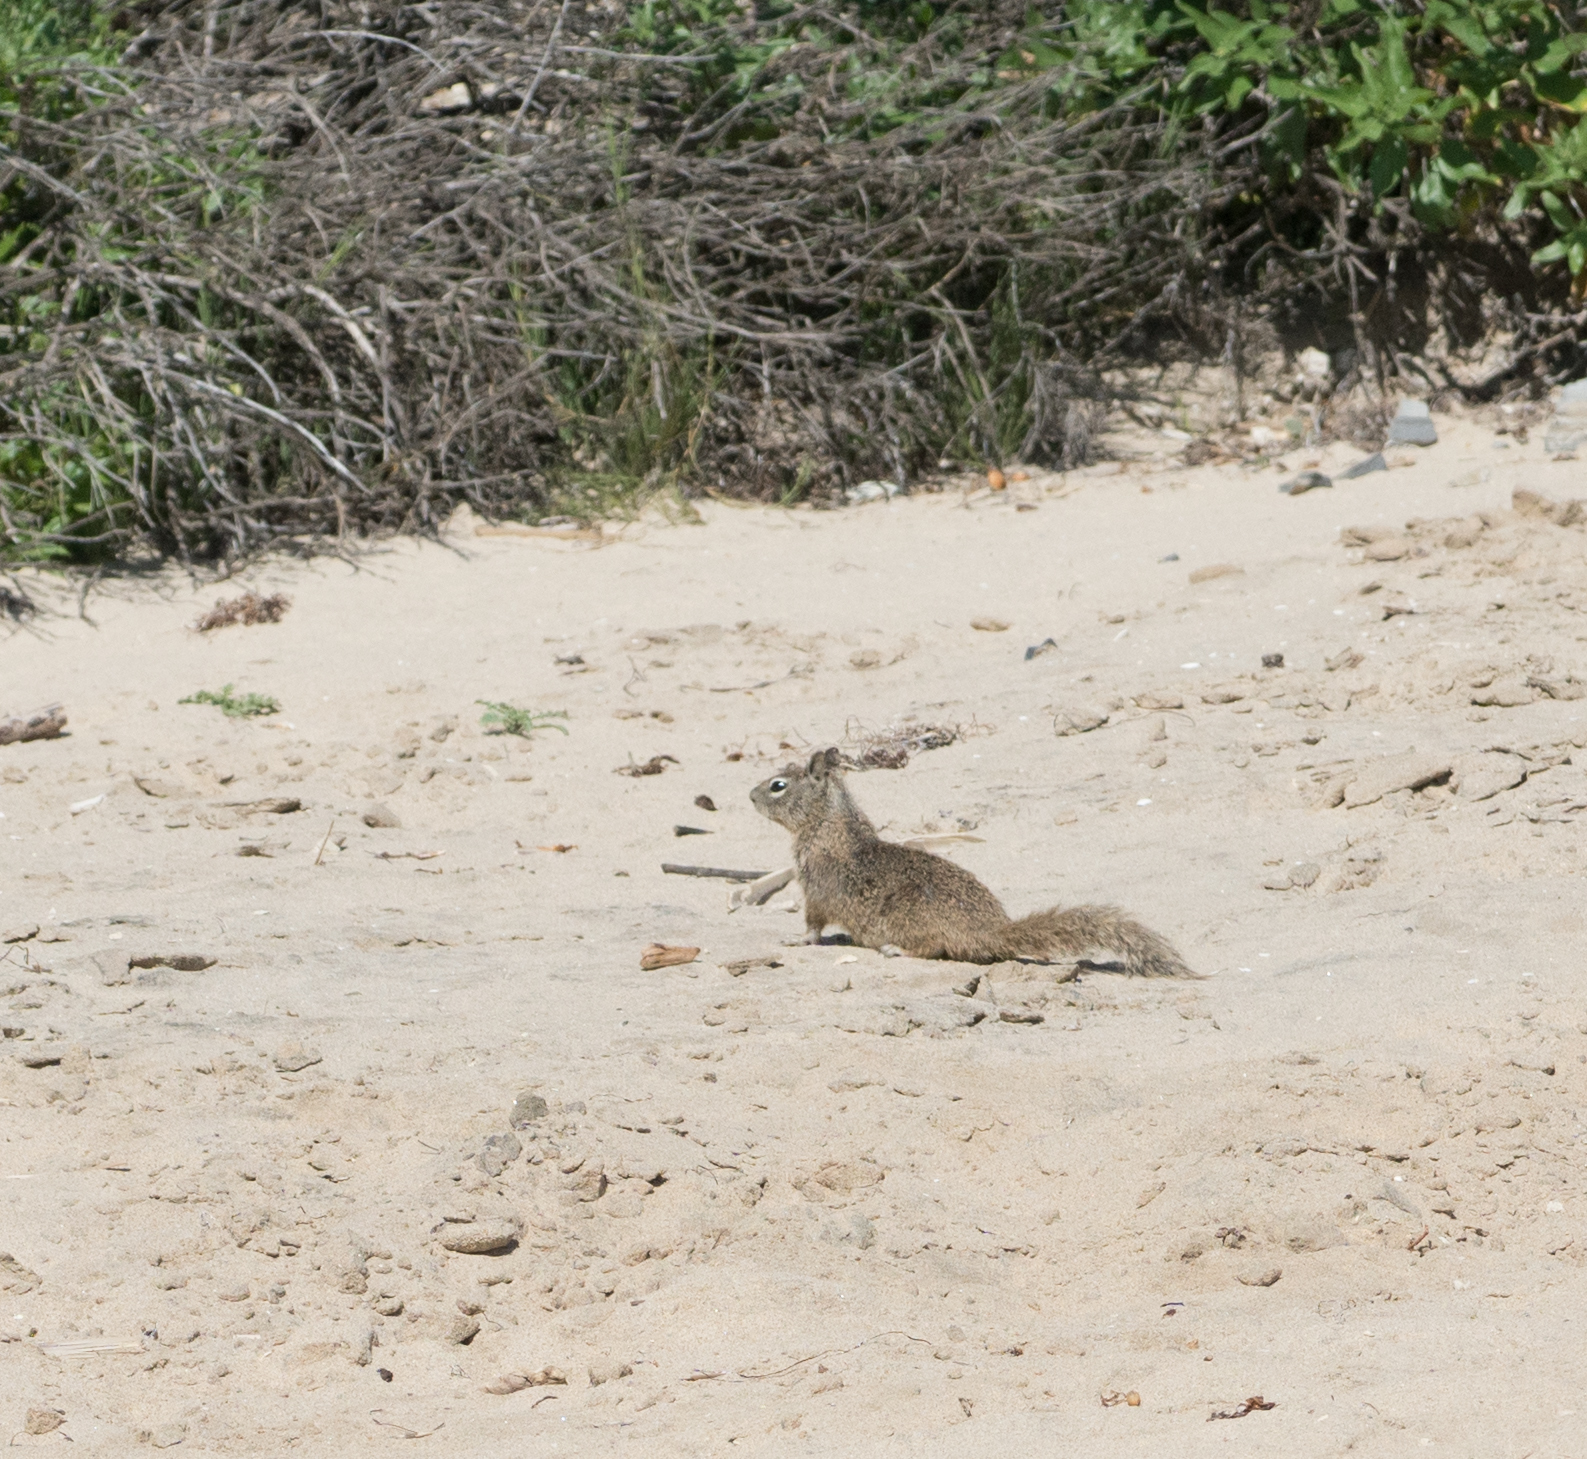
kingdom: Animalia
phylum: Chordata
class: Mammalia
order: Rodentia
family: Sciuridae
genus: Otospermophilus
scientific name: Otospermophilus beecheyi
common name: California ground squirrel
